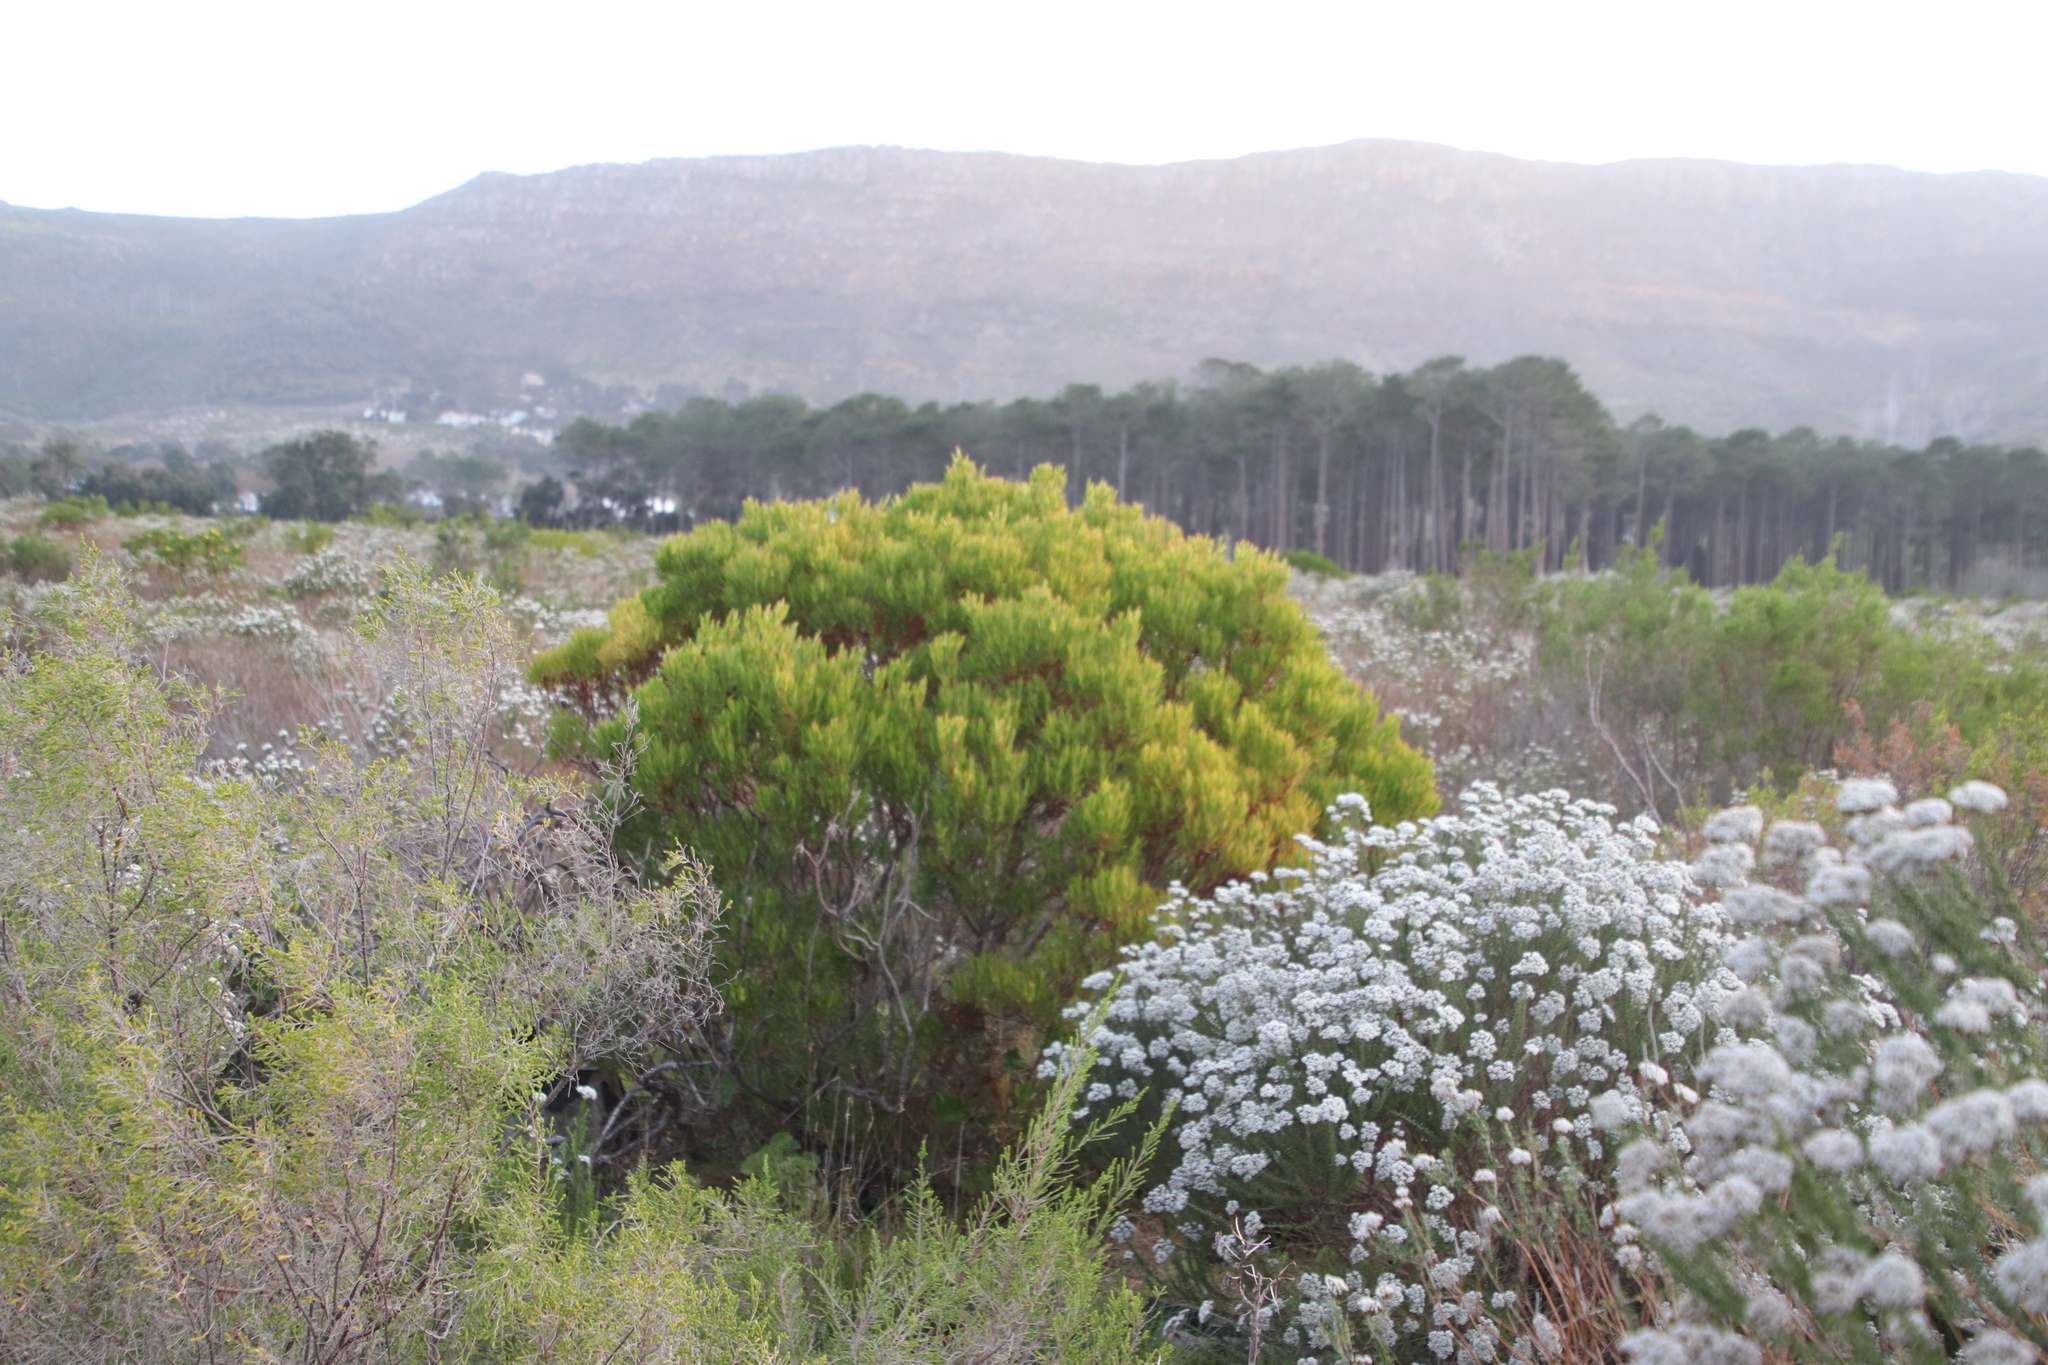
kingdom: Plantae
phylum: Tracheophyta
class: Magnoliopsida
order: Proteales
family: Proteaceae
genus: Leucadendron
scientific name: Leucadendron xanthoconus
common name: Sickle-leaf conebush
